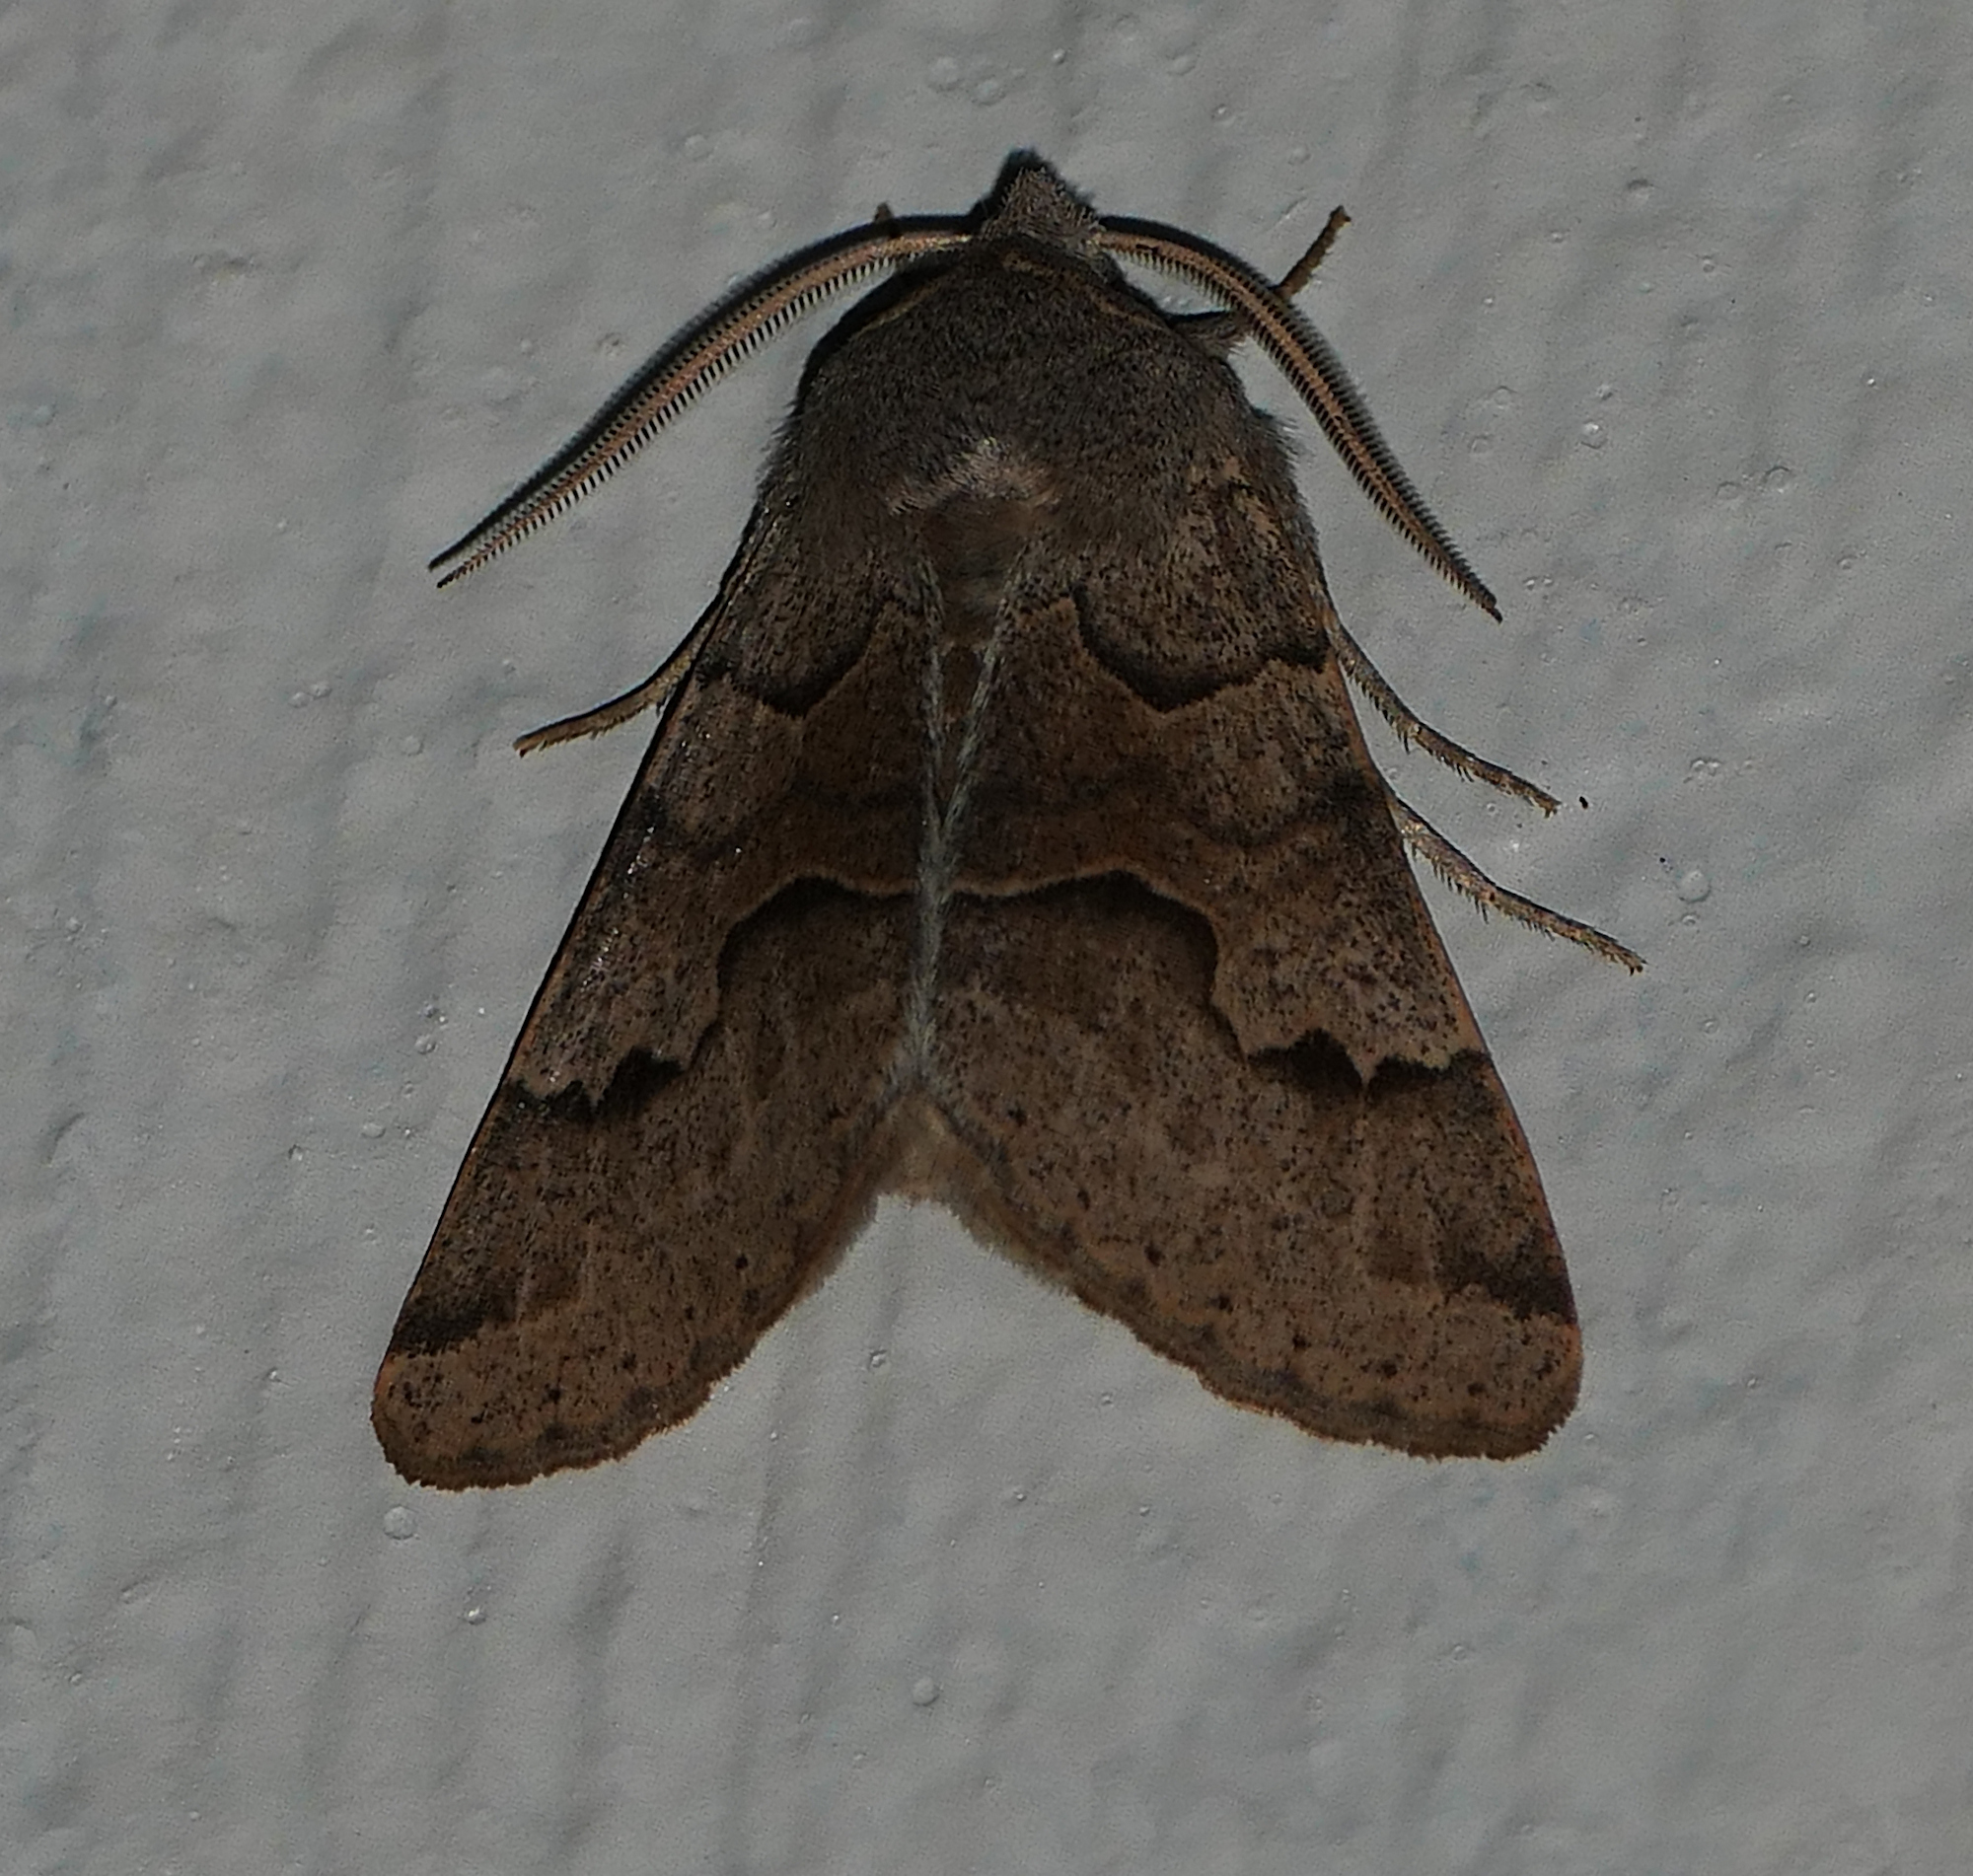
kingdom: Animalia
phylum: Arthropoda
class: Insecta
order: Lepidoptera
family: Erebidae
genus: Ulosyneda
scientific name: Ulosyneda valens
